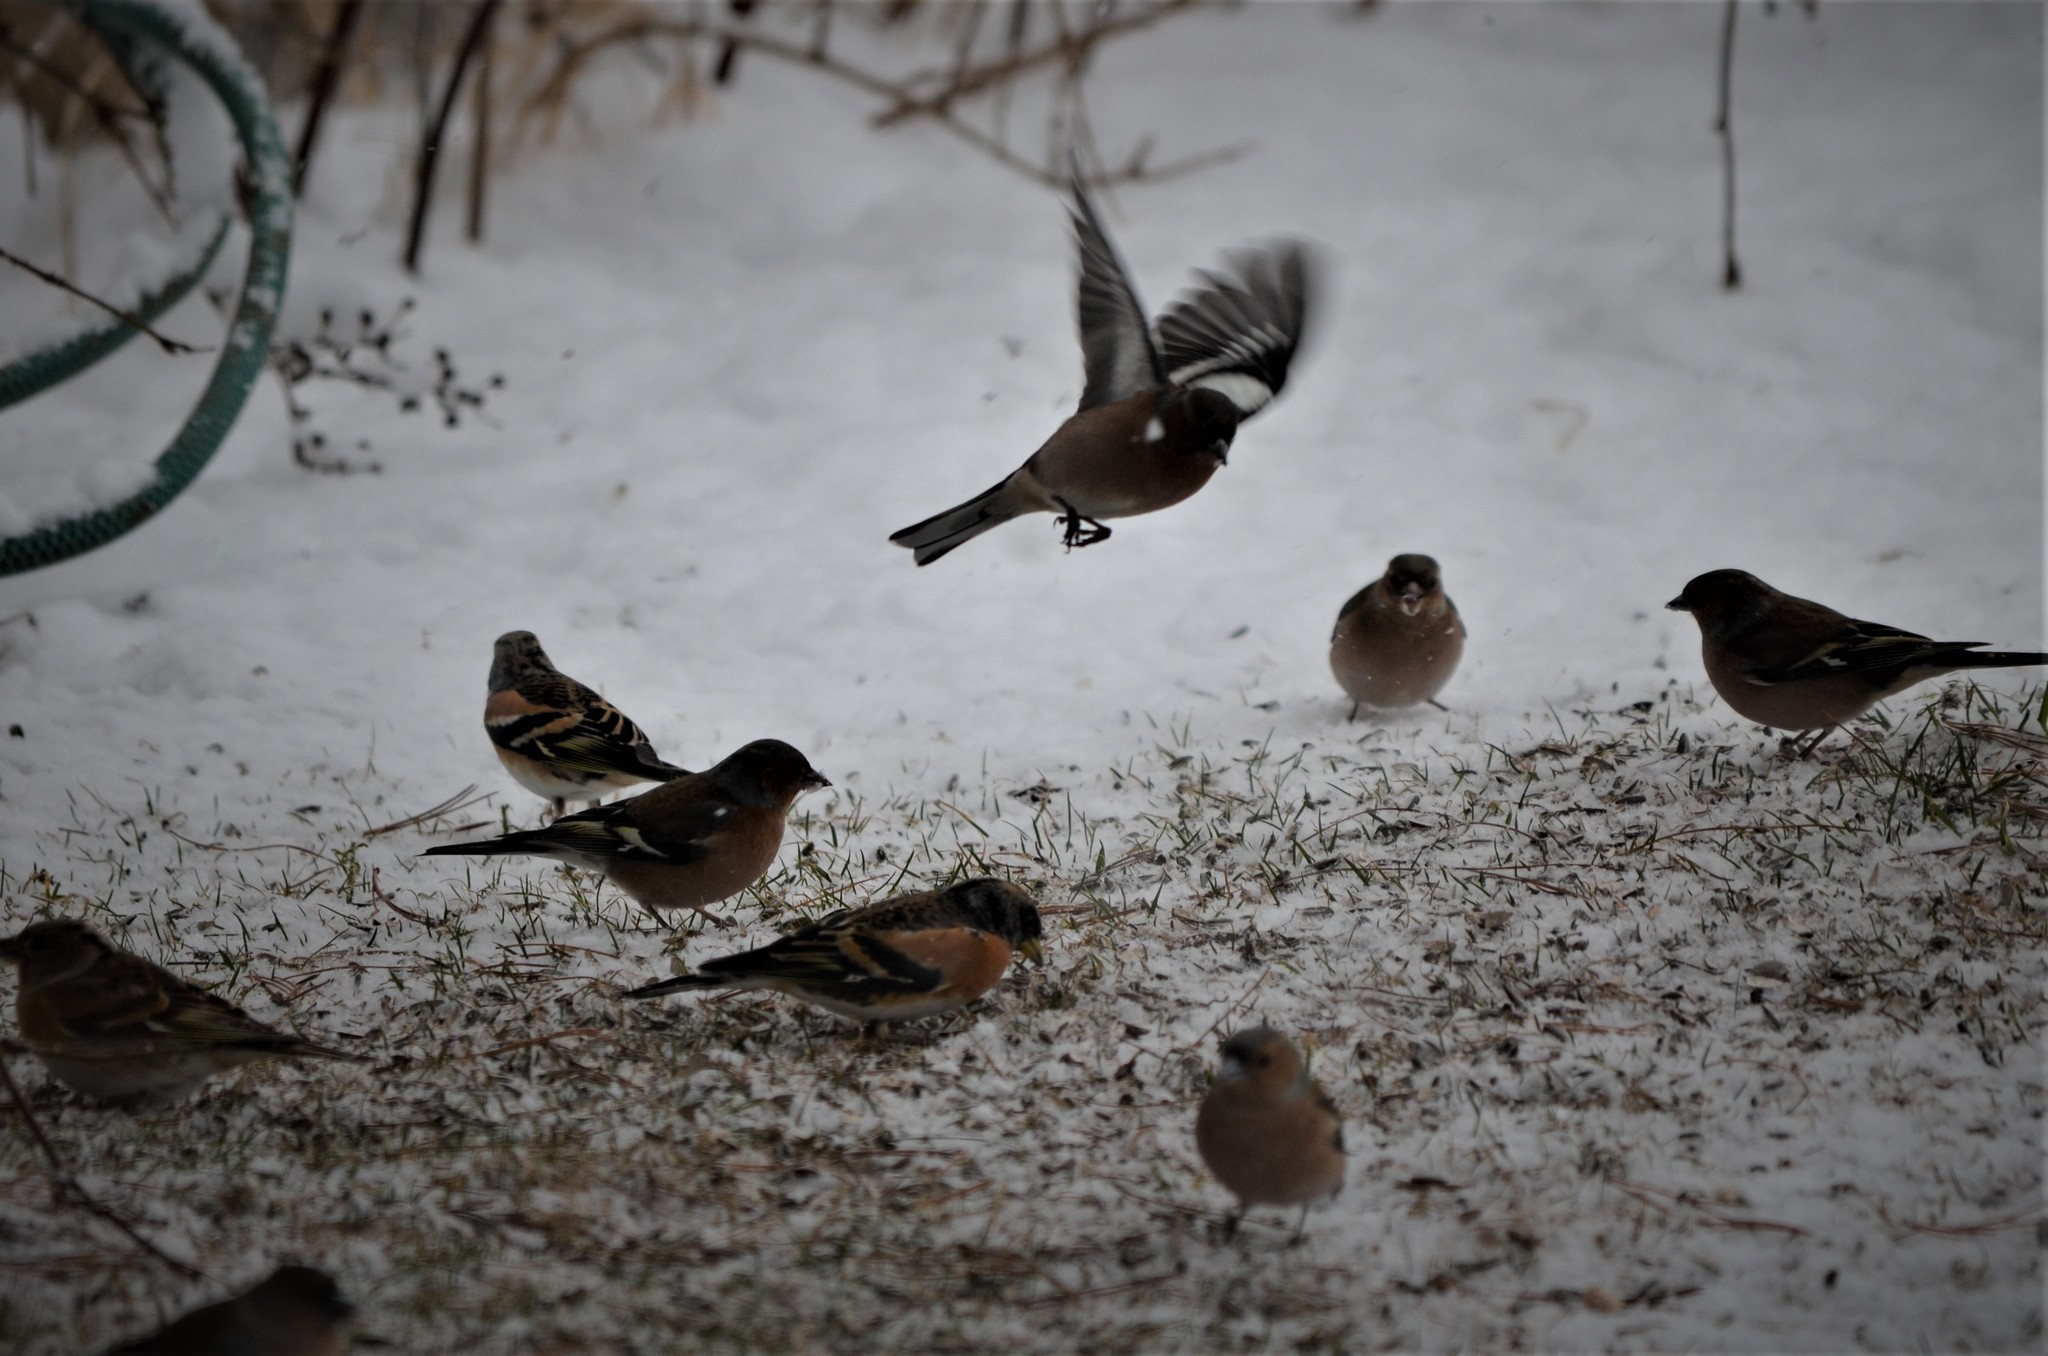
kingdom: Animalia
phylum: Chordata
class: Aves
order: Passeriformes
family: Fringillidae
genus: Fringilla
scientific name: Fringilla montifringilla
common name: Brambling
